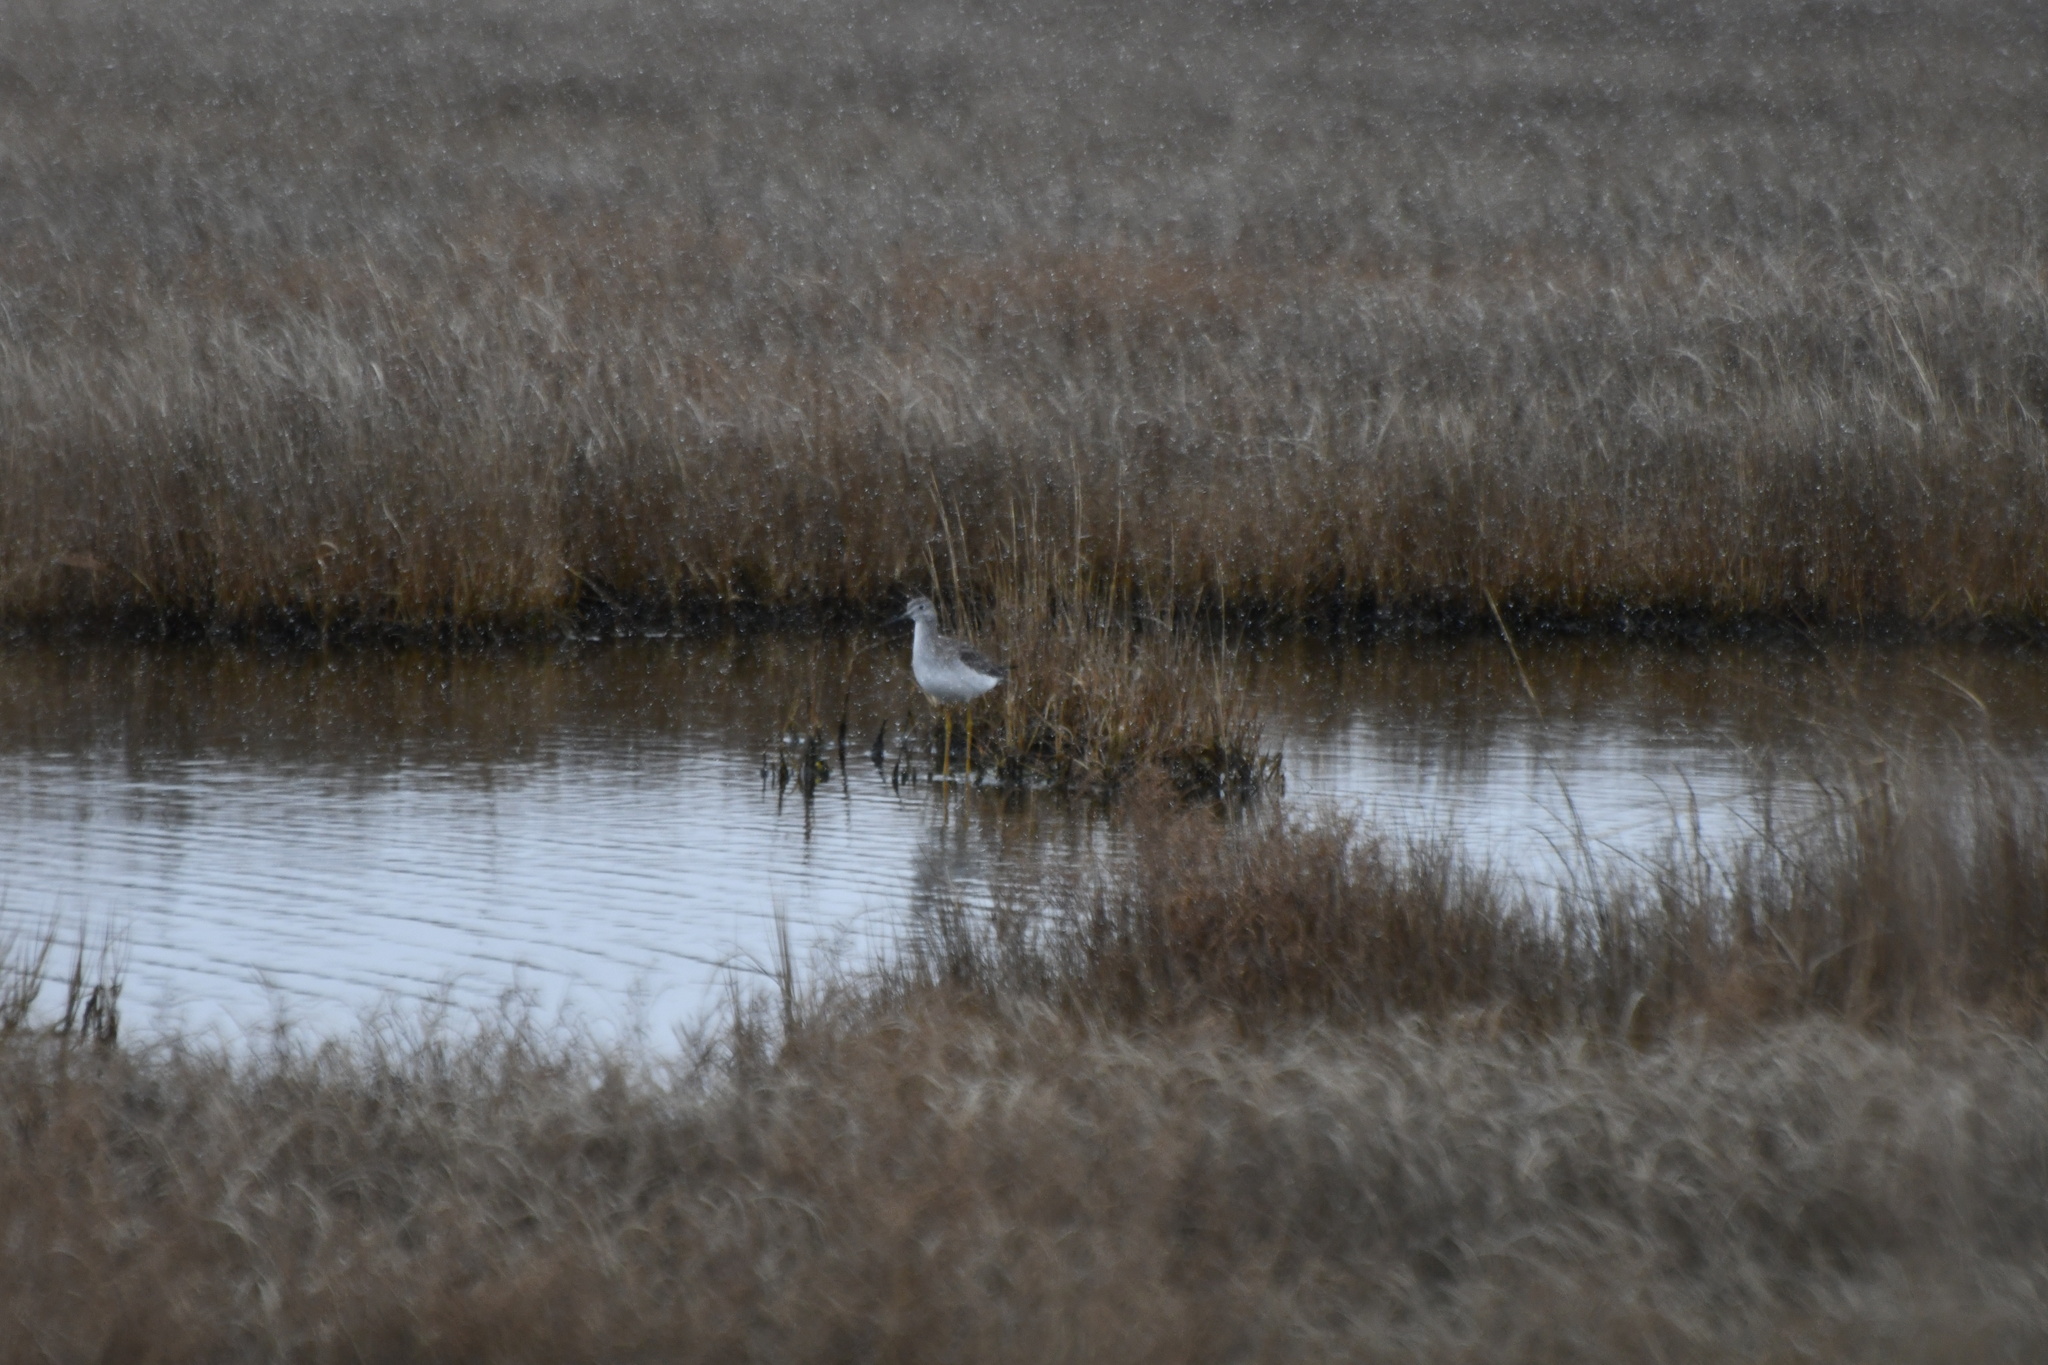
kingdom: Animalia
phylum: Chordata
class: Aves
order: Charadriiformes
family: Scolopacidae
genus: Tringa
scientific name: Tringa melanoleuca
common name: Greater yellowlegs
